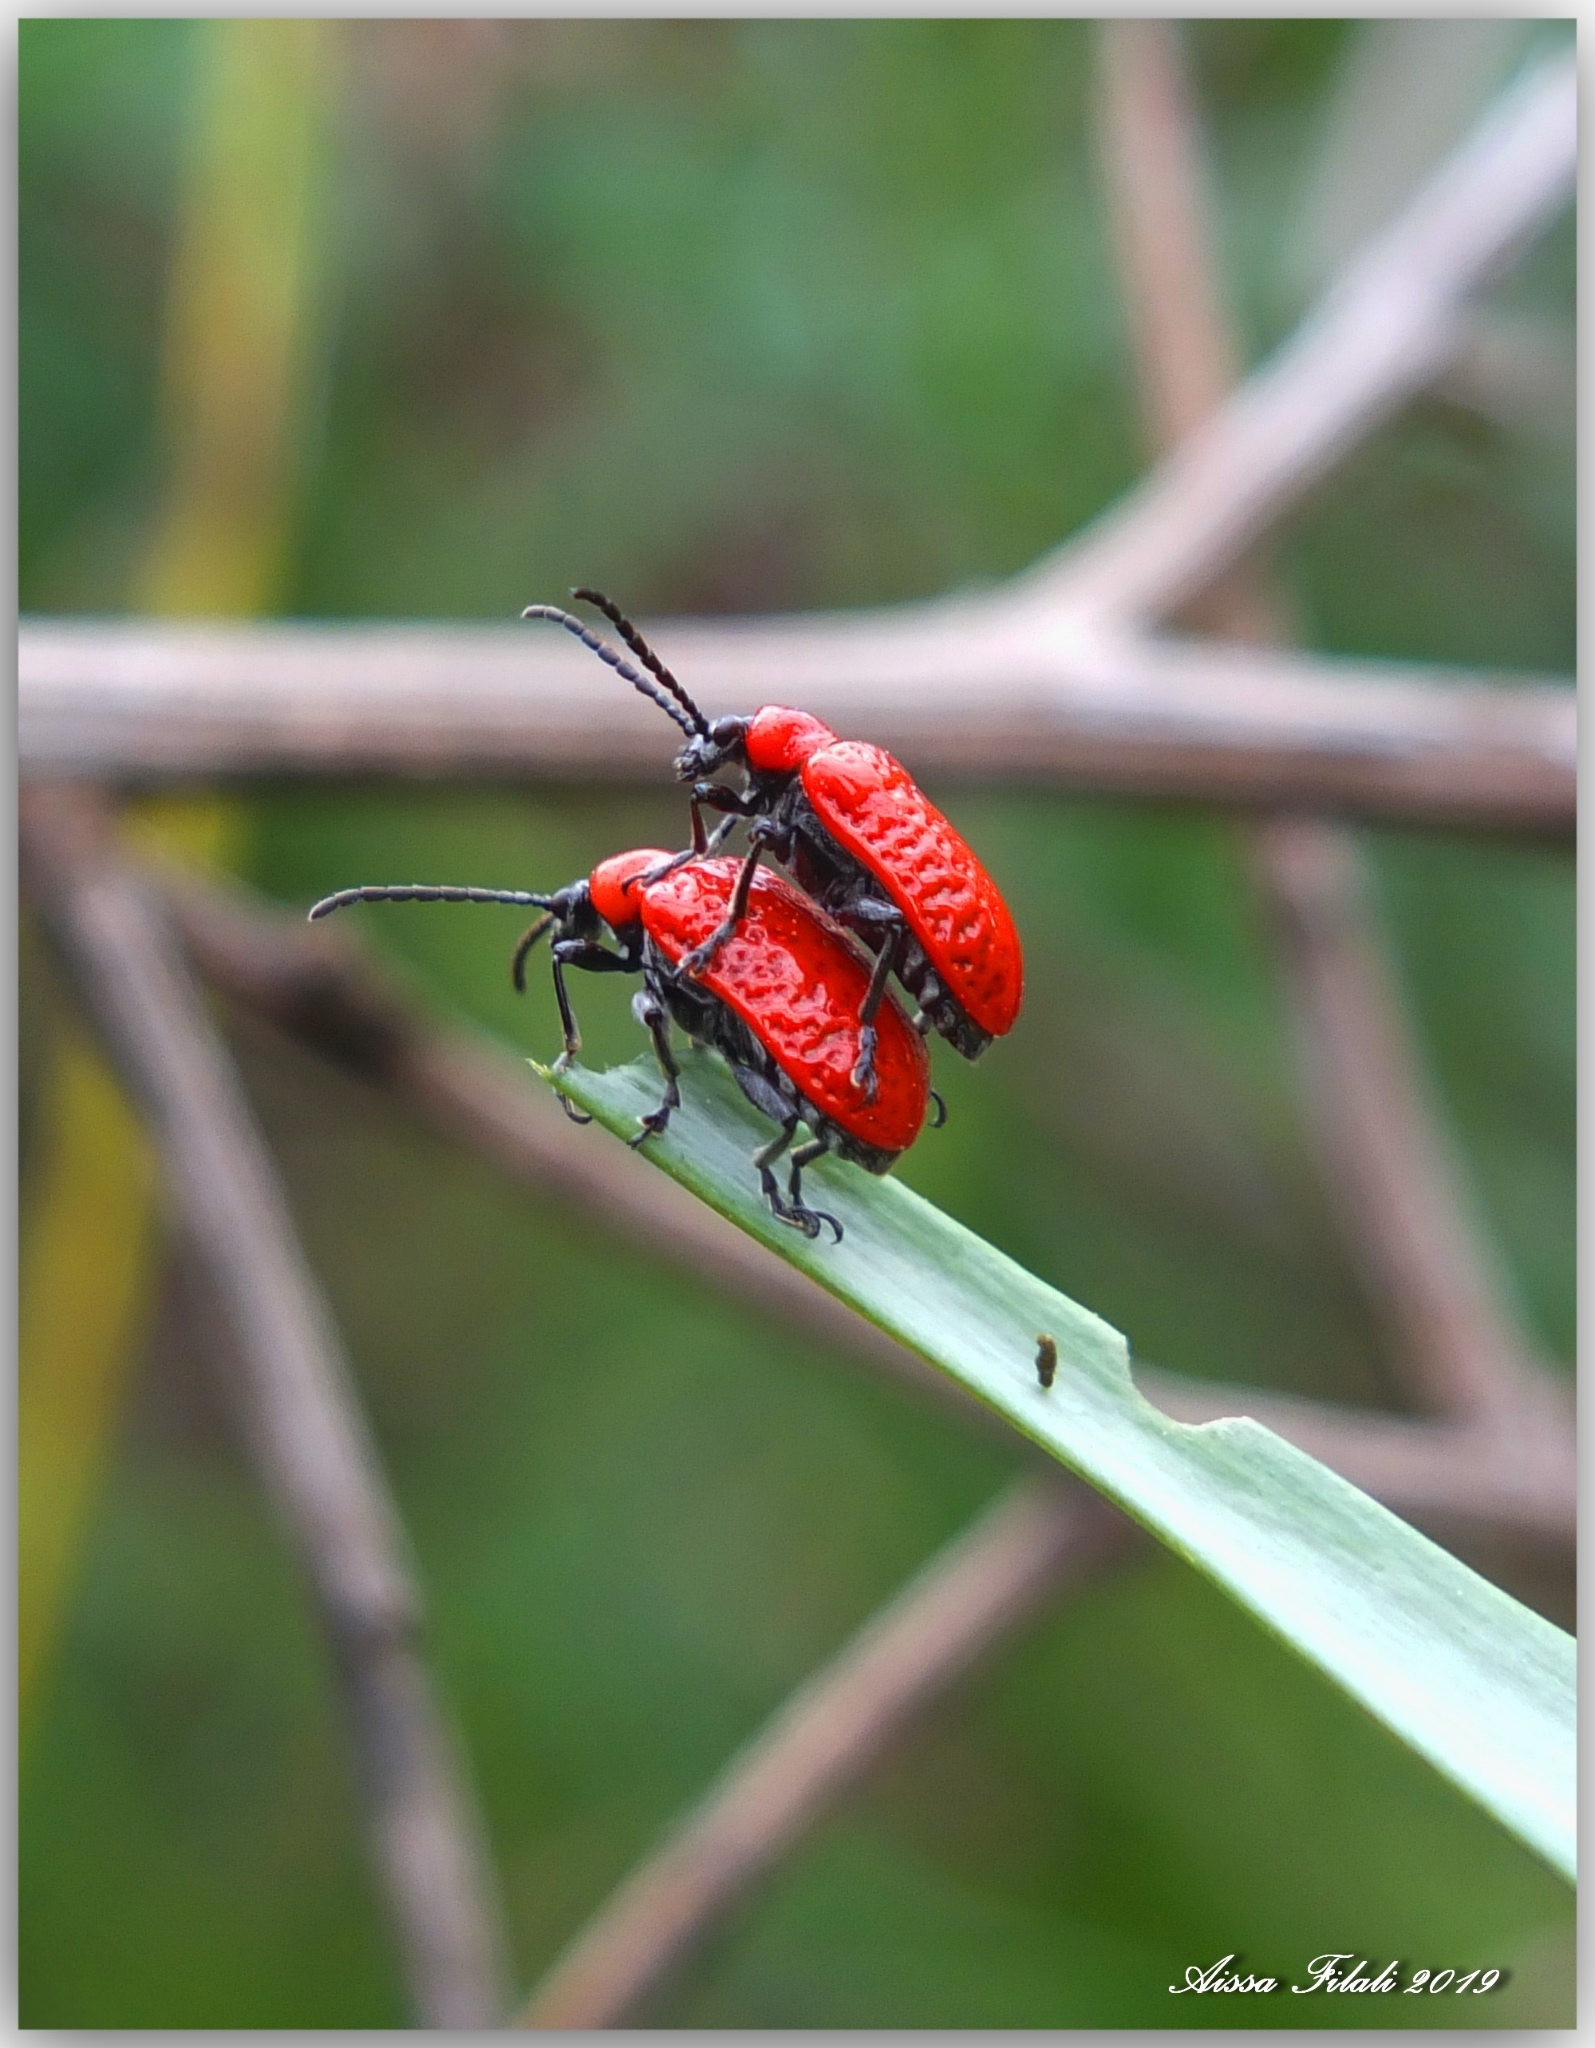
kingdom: Animalia
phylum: Arthropoda
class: Insecta
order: Coleoptera
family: Chrysomelidae
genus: Lilioceris
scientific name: Lilioceris
